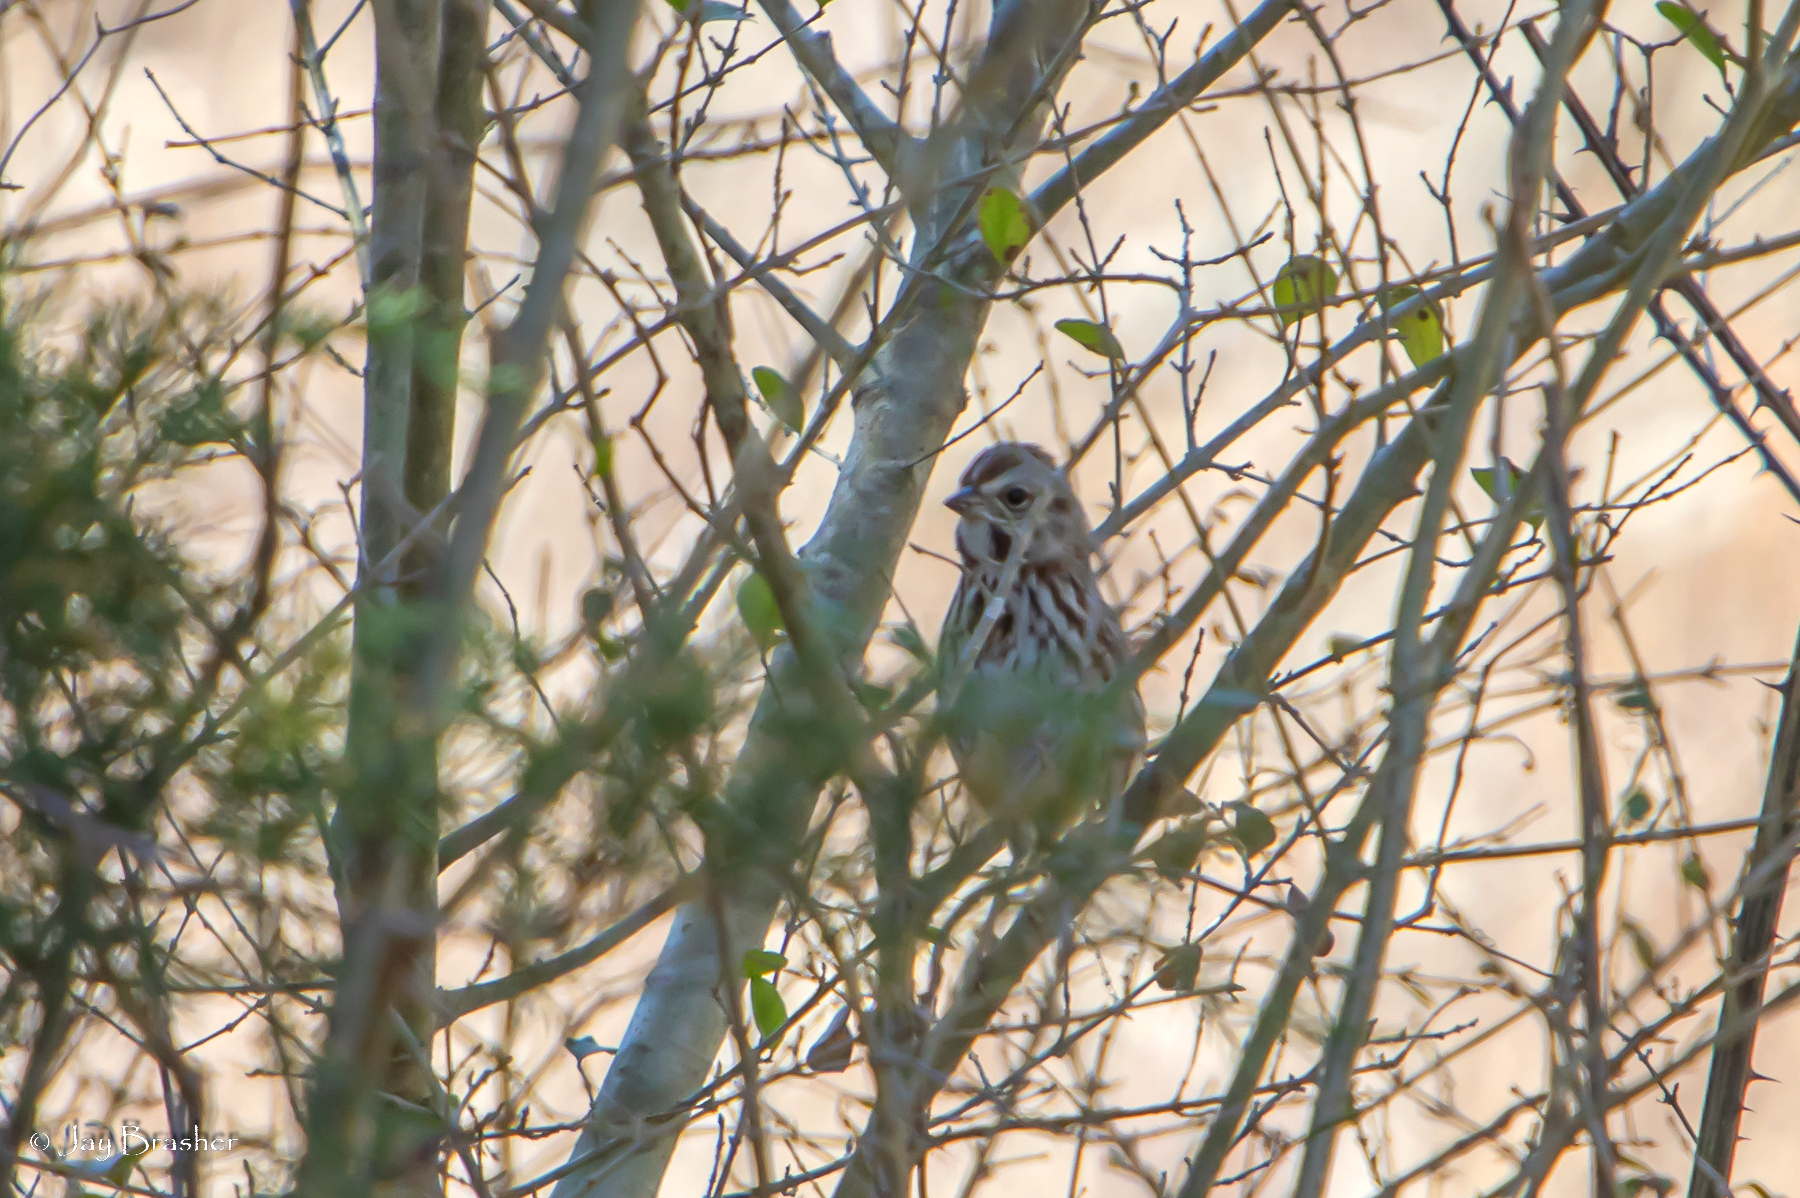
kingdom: Animalia
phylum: Chordata
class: Aves
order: Passeriformes
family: Passerellidae
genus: Melospiza
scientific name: Melospiza melodia
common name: Song sparrow
